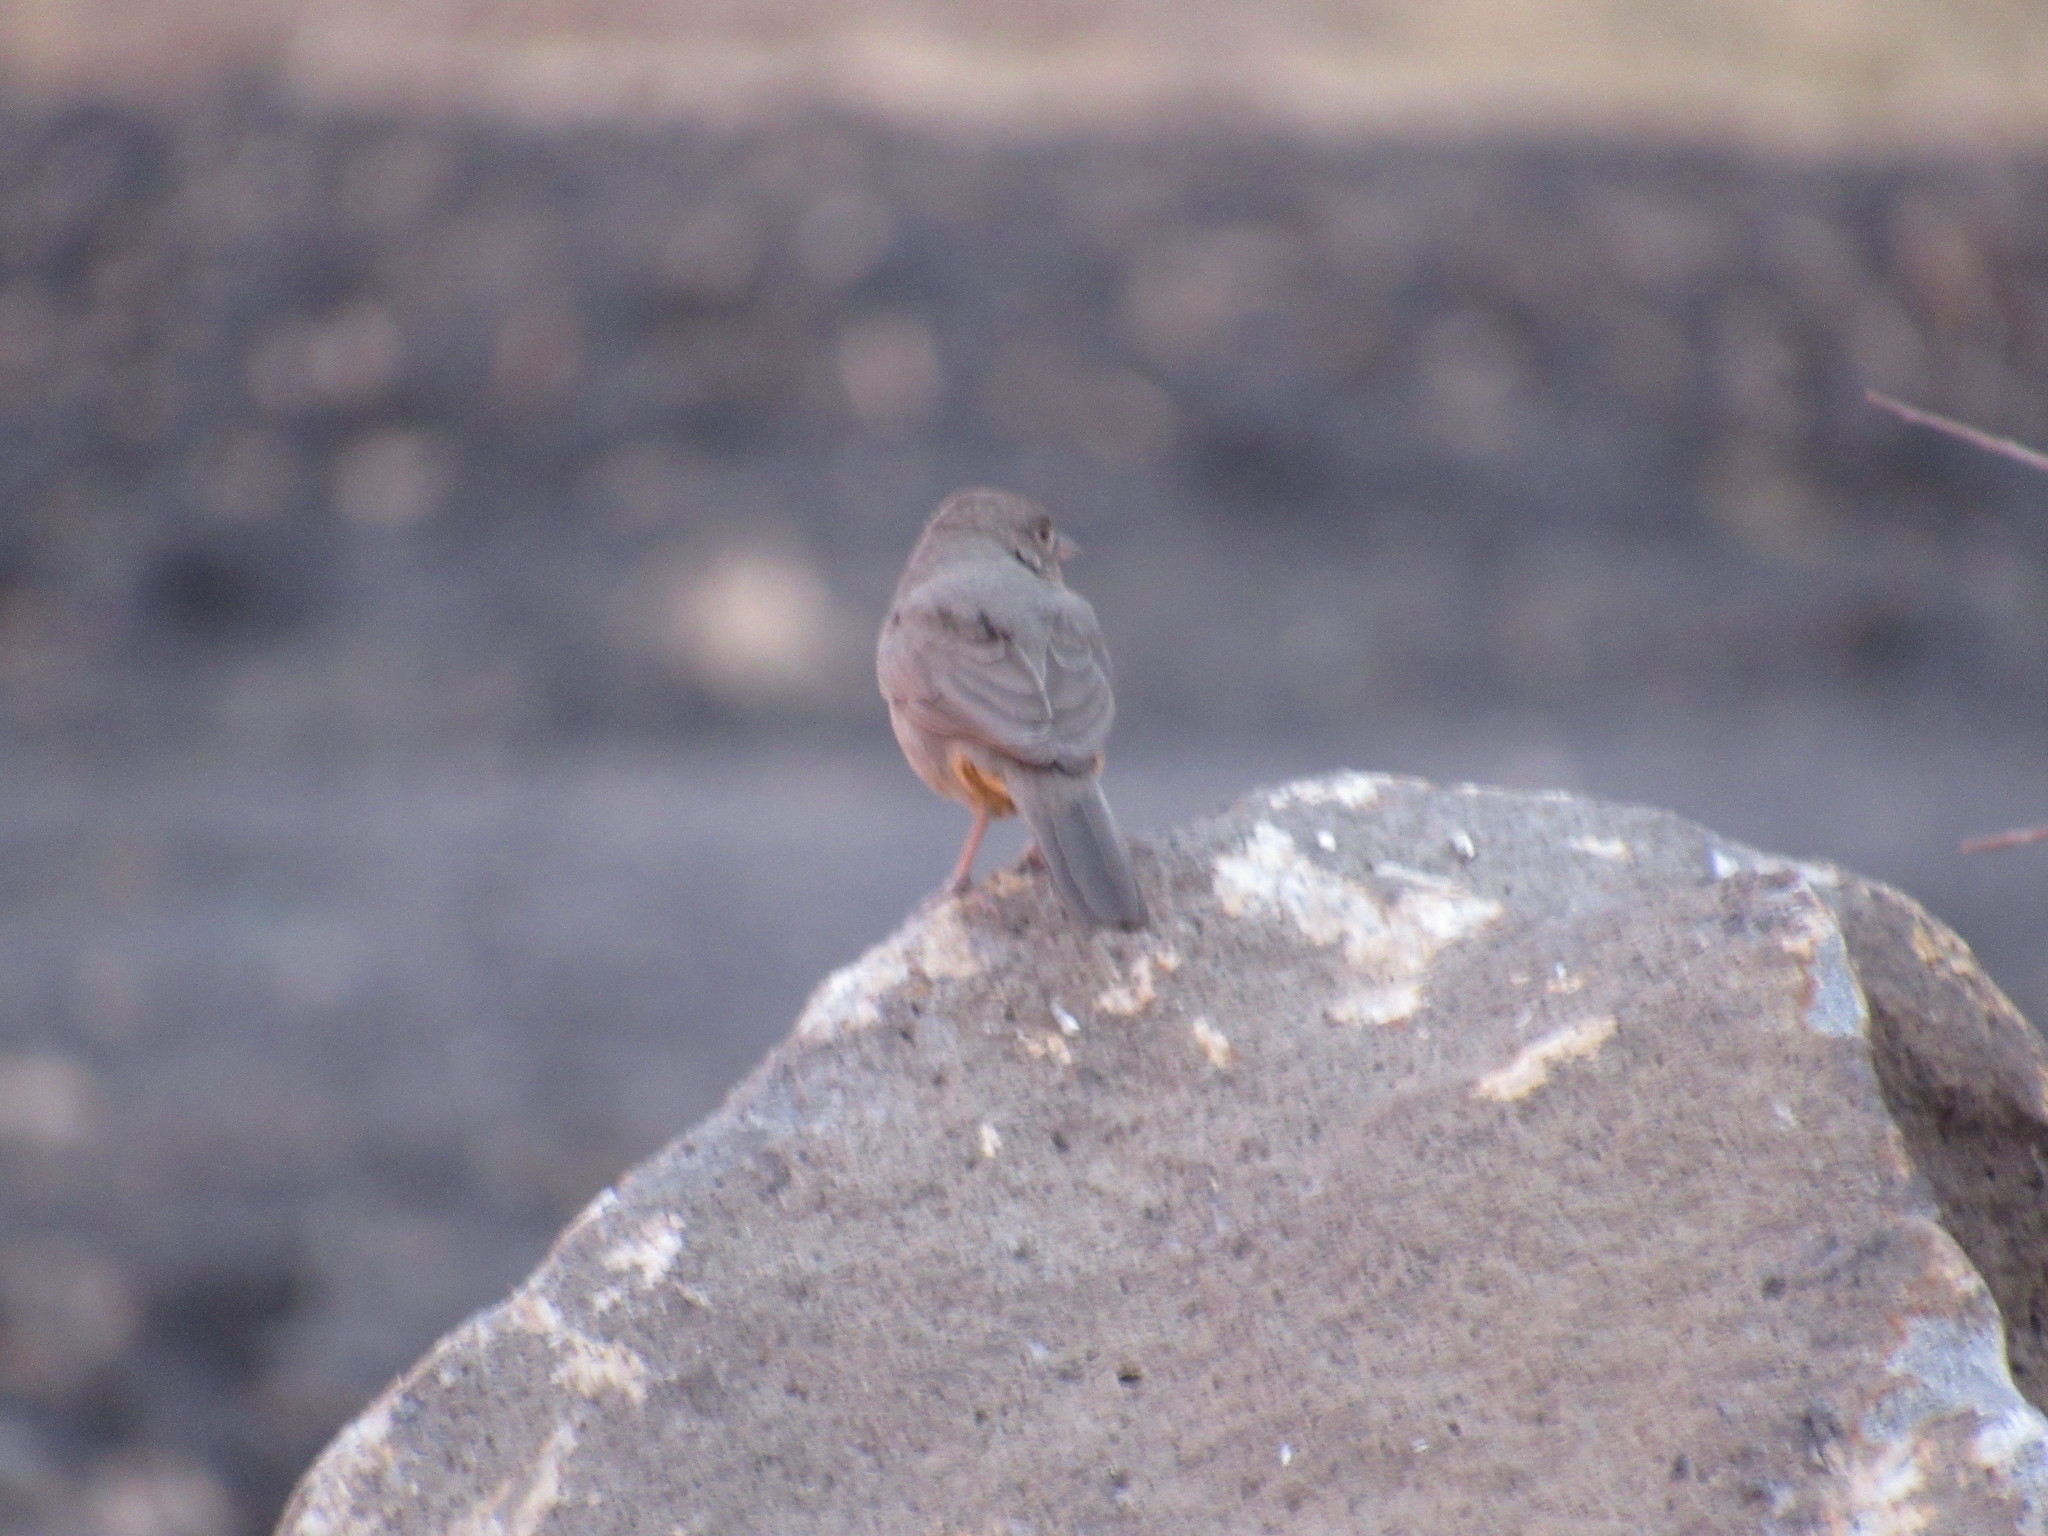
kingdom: Animalia
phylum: Chordata
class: Aves
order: Passeriformes
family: Passerellidae
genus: Melozone
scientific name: Melozone fusca
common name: Canyon towhee
